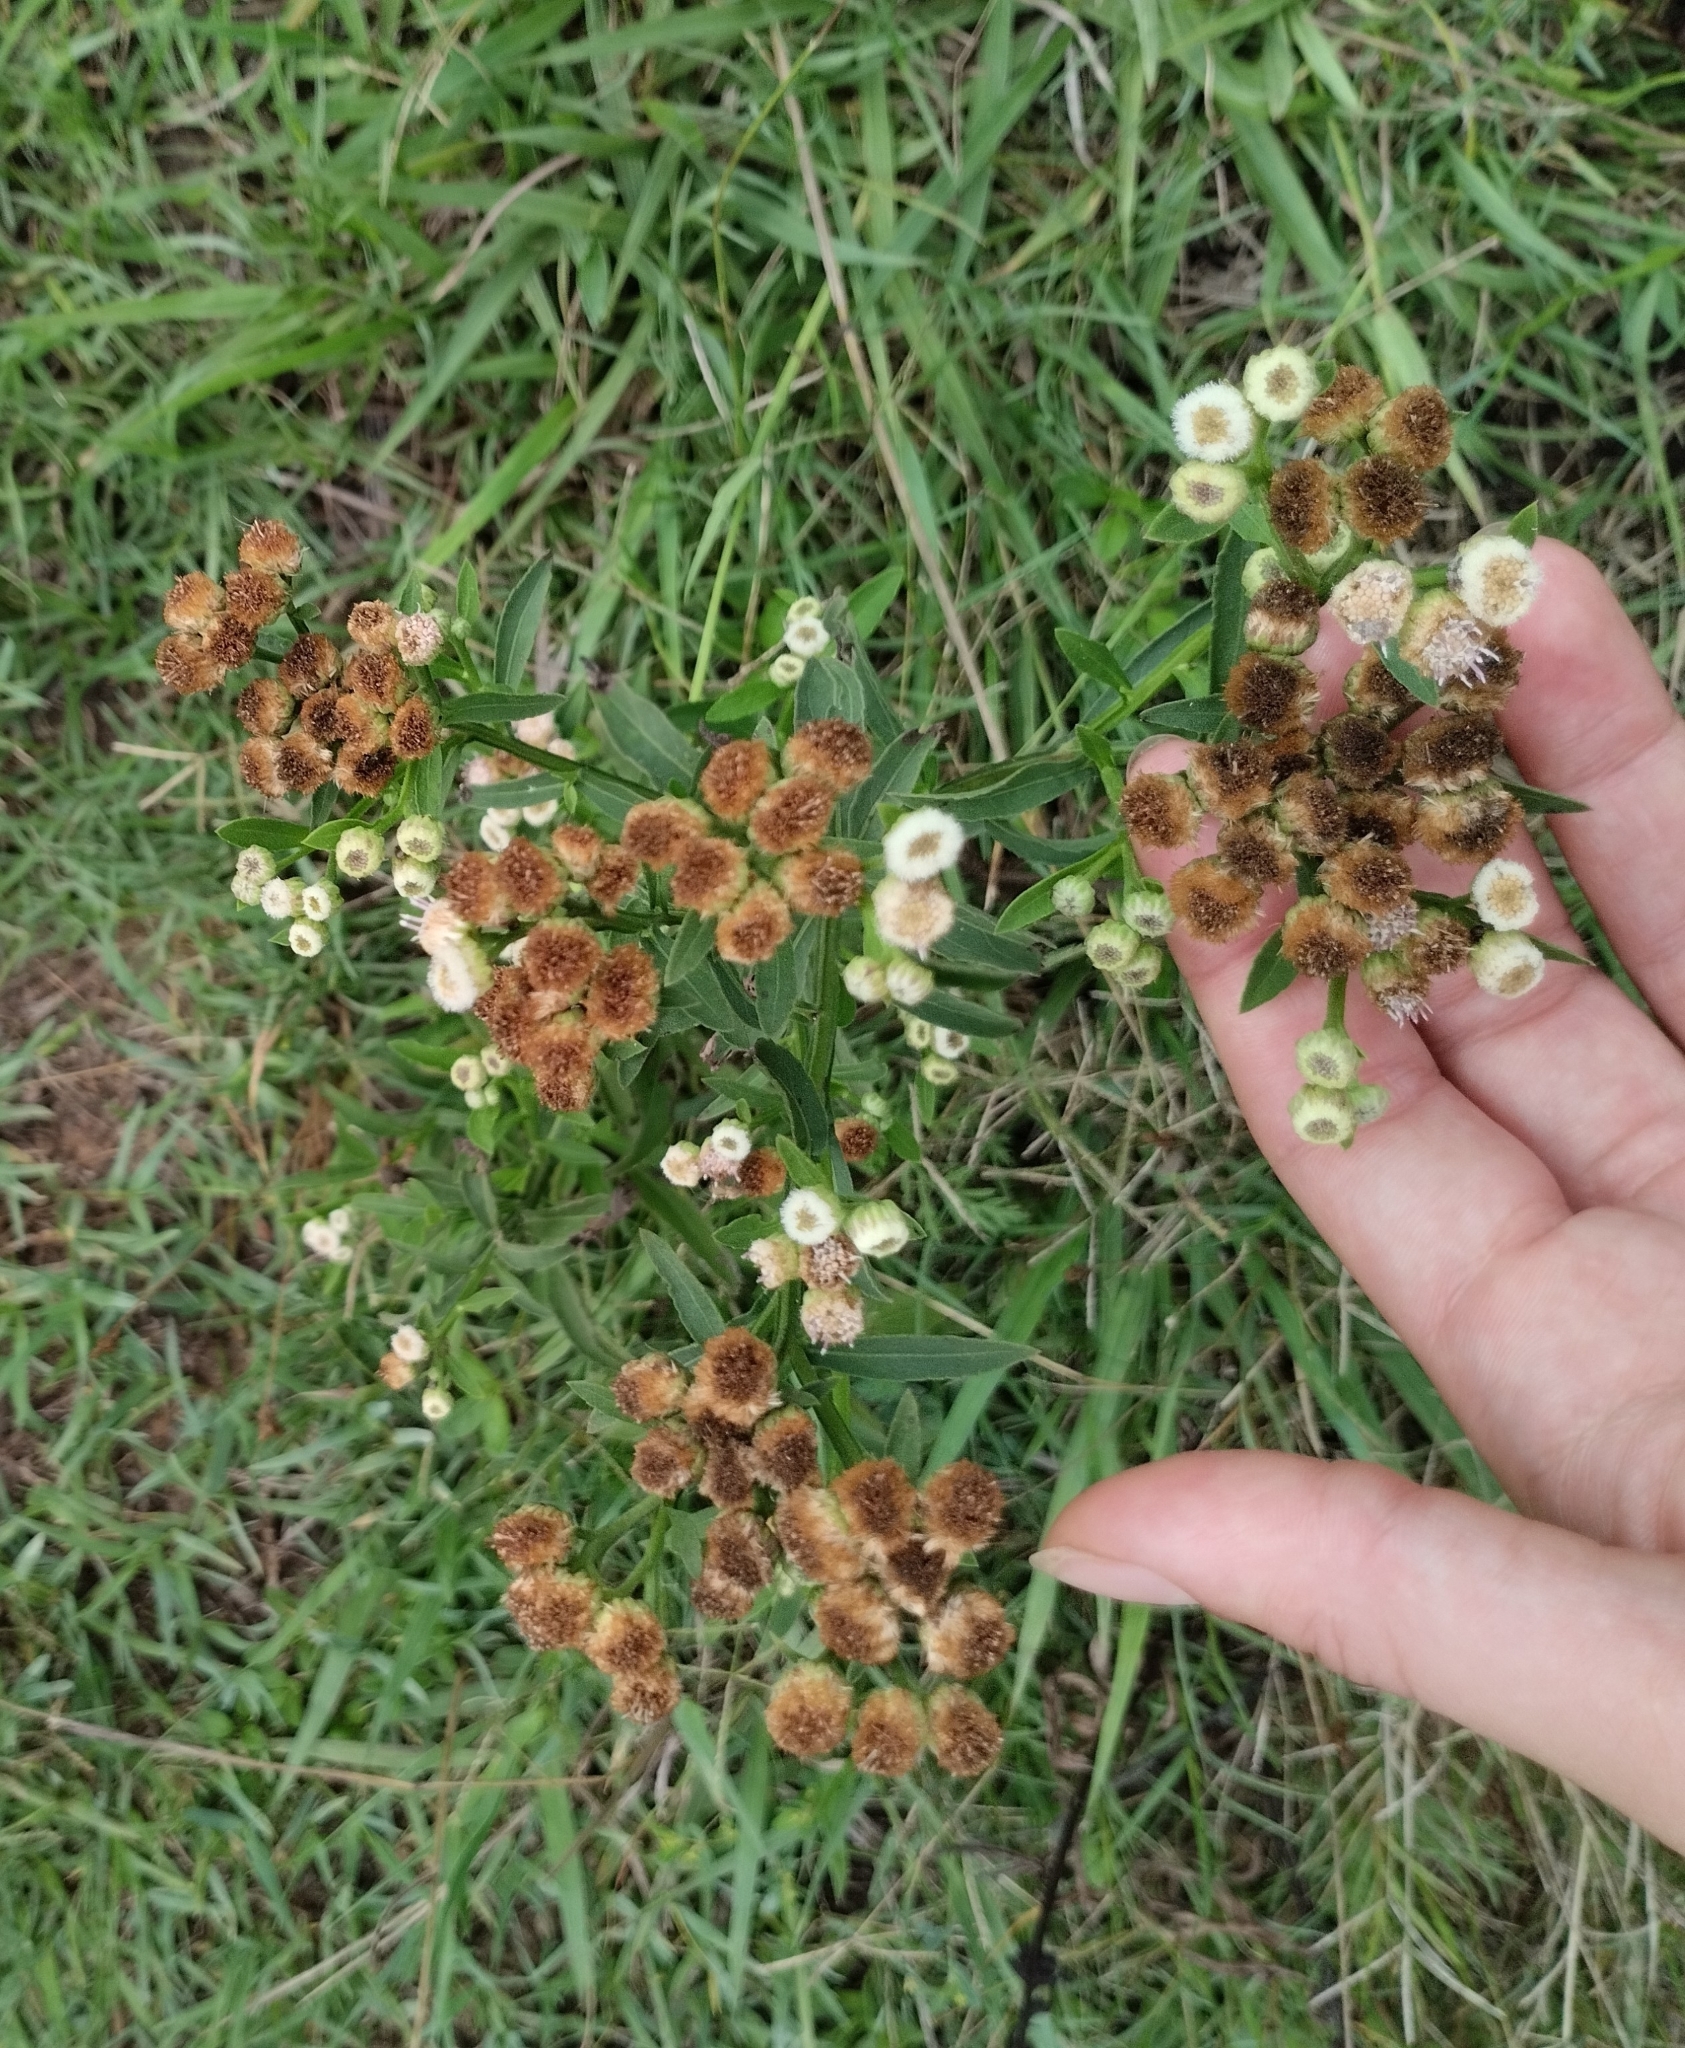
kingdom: Plantae
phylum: Tracheophyta
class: Magnoliopsida
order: Asterales
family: Asteraceae
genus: Pluchea
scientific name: Pluchea sagittalis
